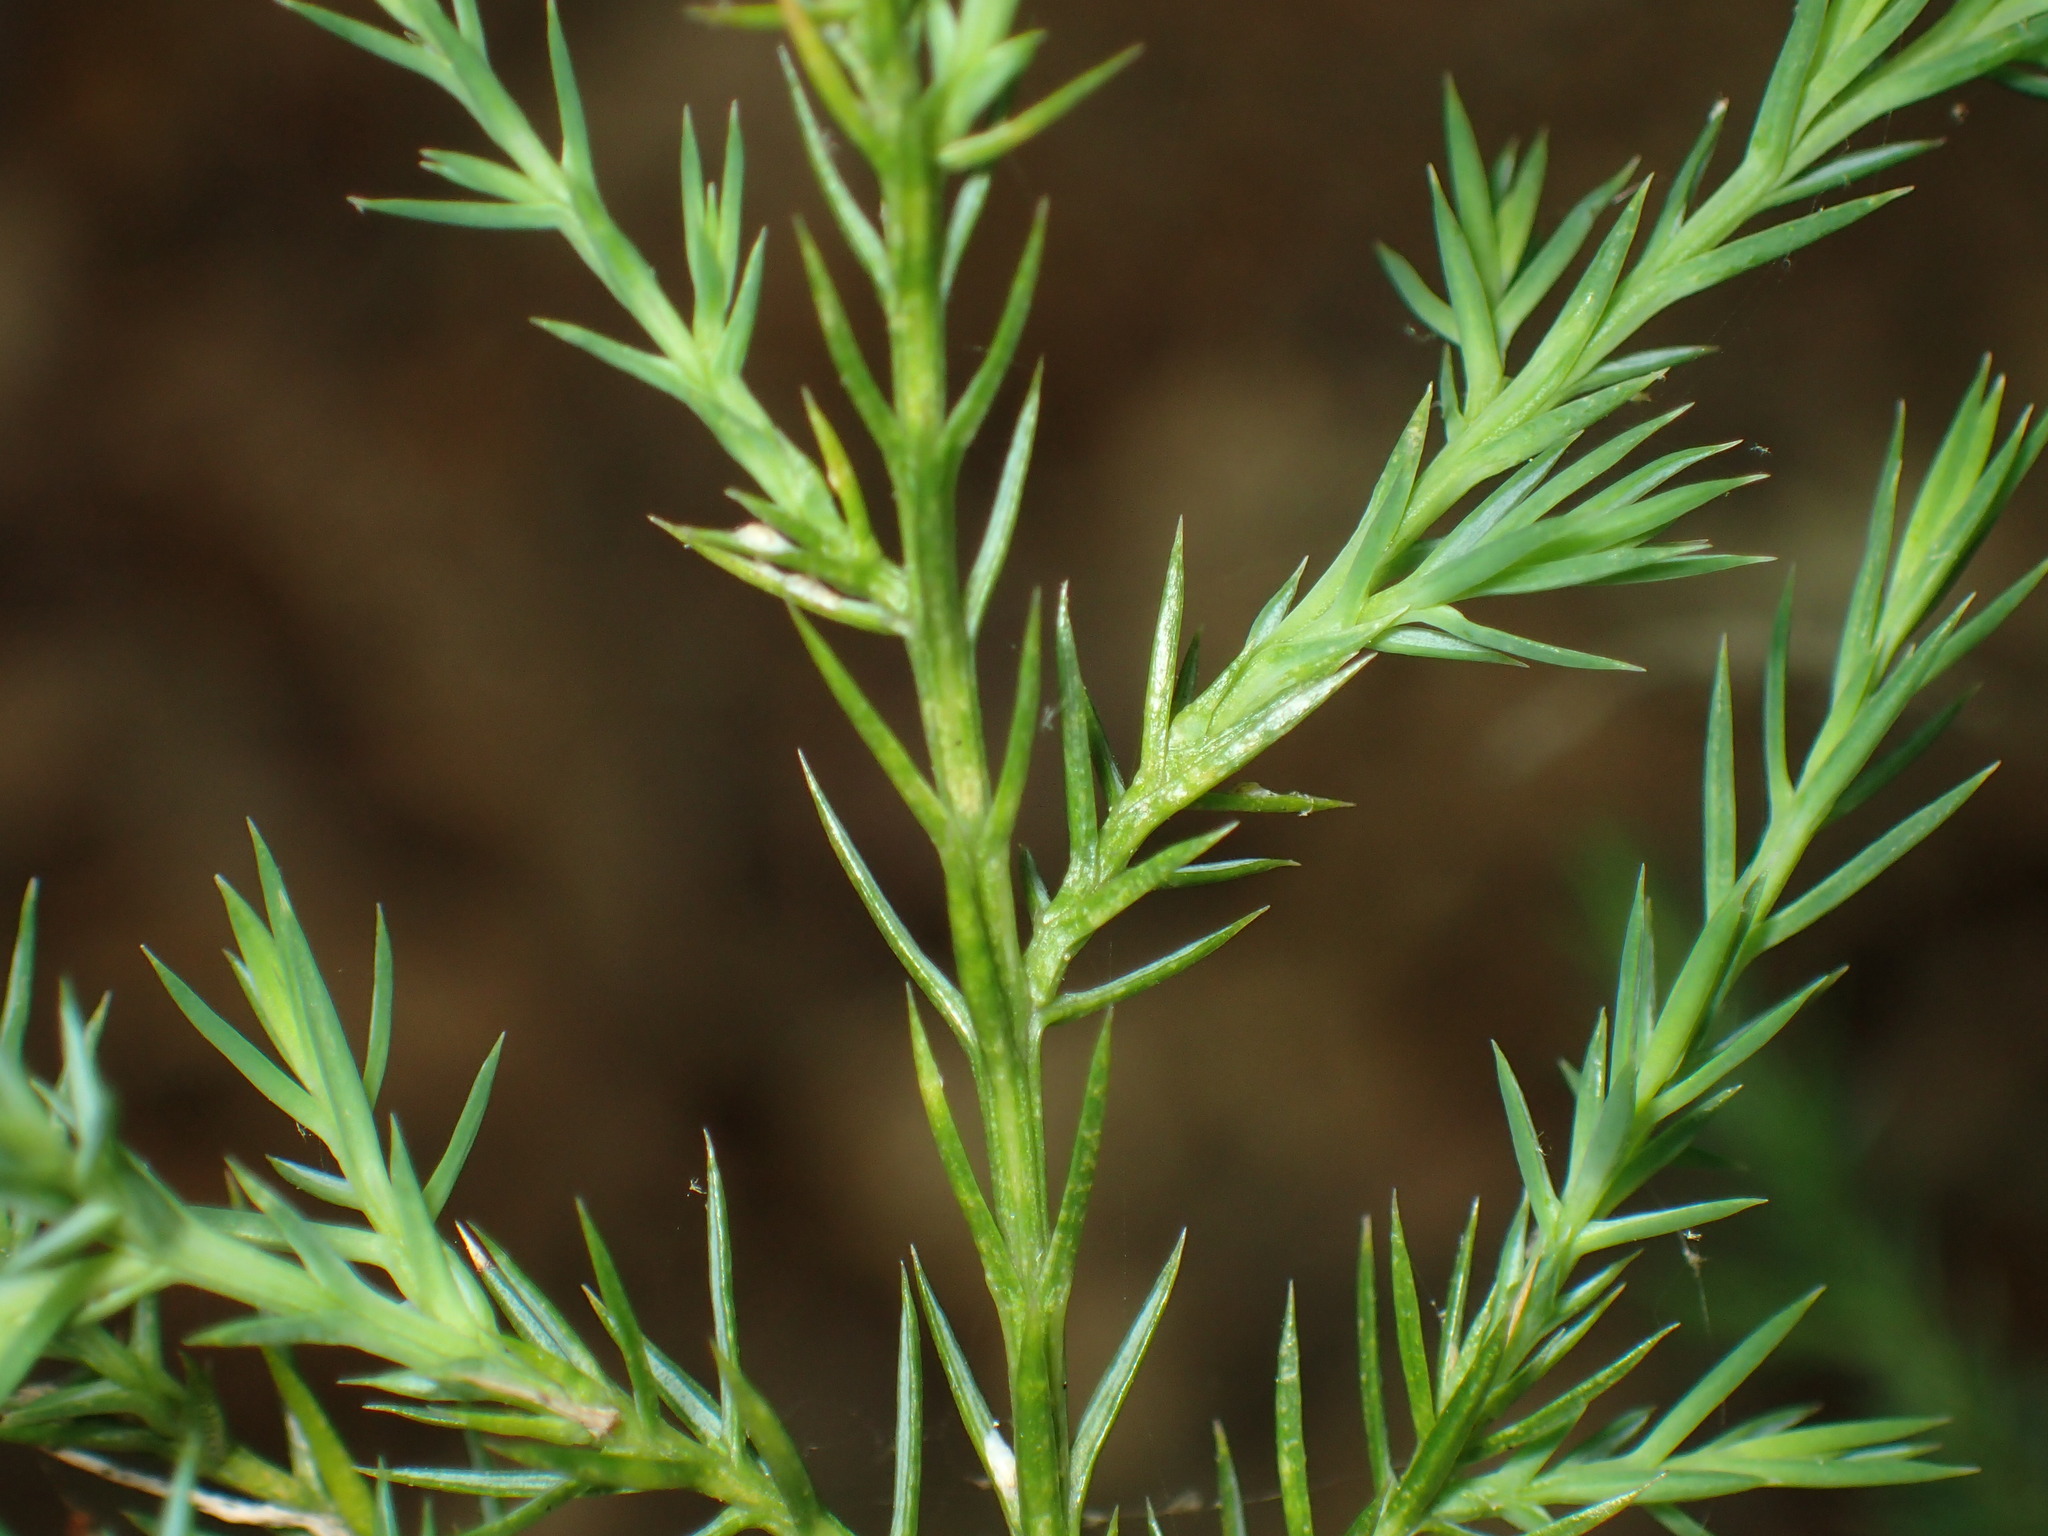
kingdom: Plantae
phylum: Tracheophyta
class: Pinopsida
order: Pinales
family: Cupressaceae
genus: Juniperus
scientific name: Juniperus virginiana
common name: Red juniper
